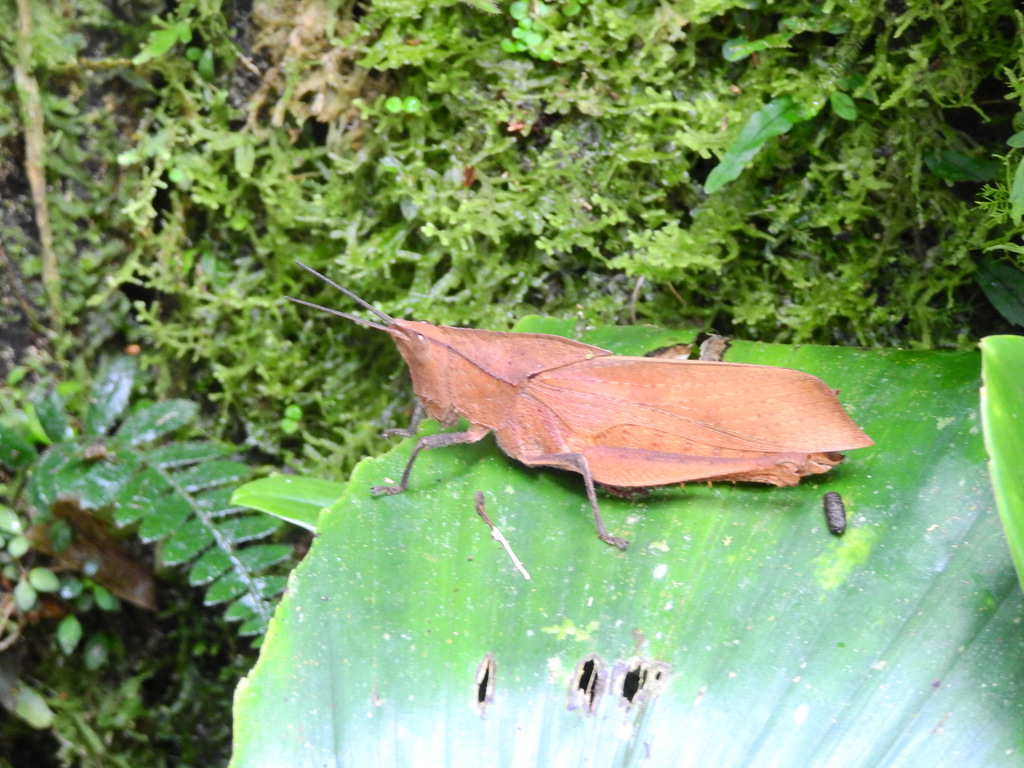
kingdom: Animalia
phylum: Arthropoda
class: Insecta
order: Orthoptera
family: Romaleidae
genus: Colpolopha
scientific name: Colpolopha latipennis
